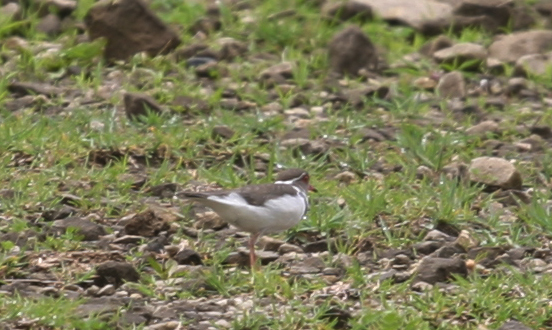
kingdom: Animalia
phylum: Chordata
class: Aves
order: Charadriiformes
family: Charadriidae
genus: Charadrius
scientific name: Charadrius tricollaris
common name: Three-banded plover
